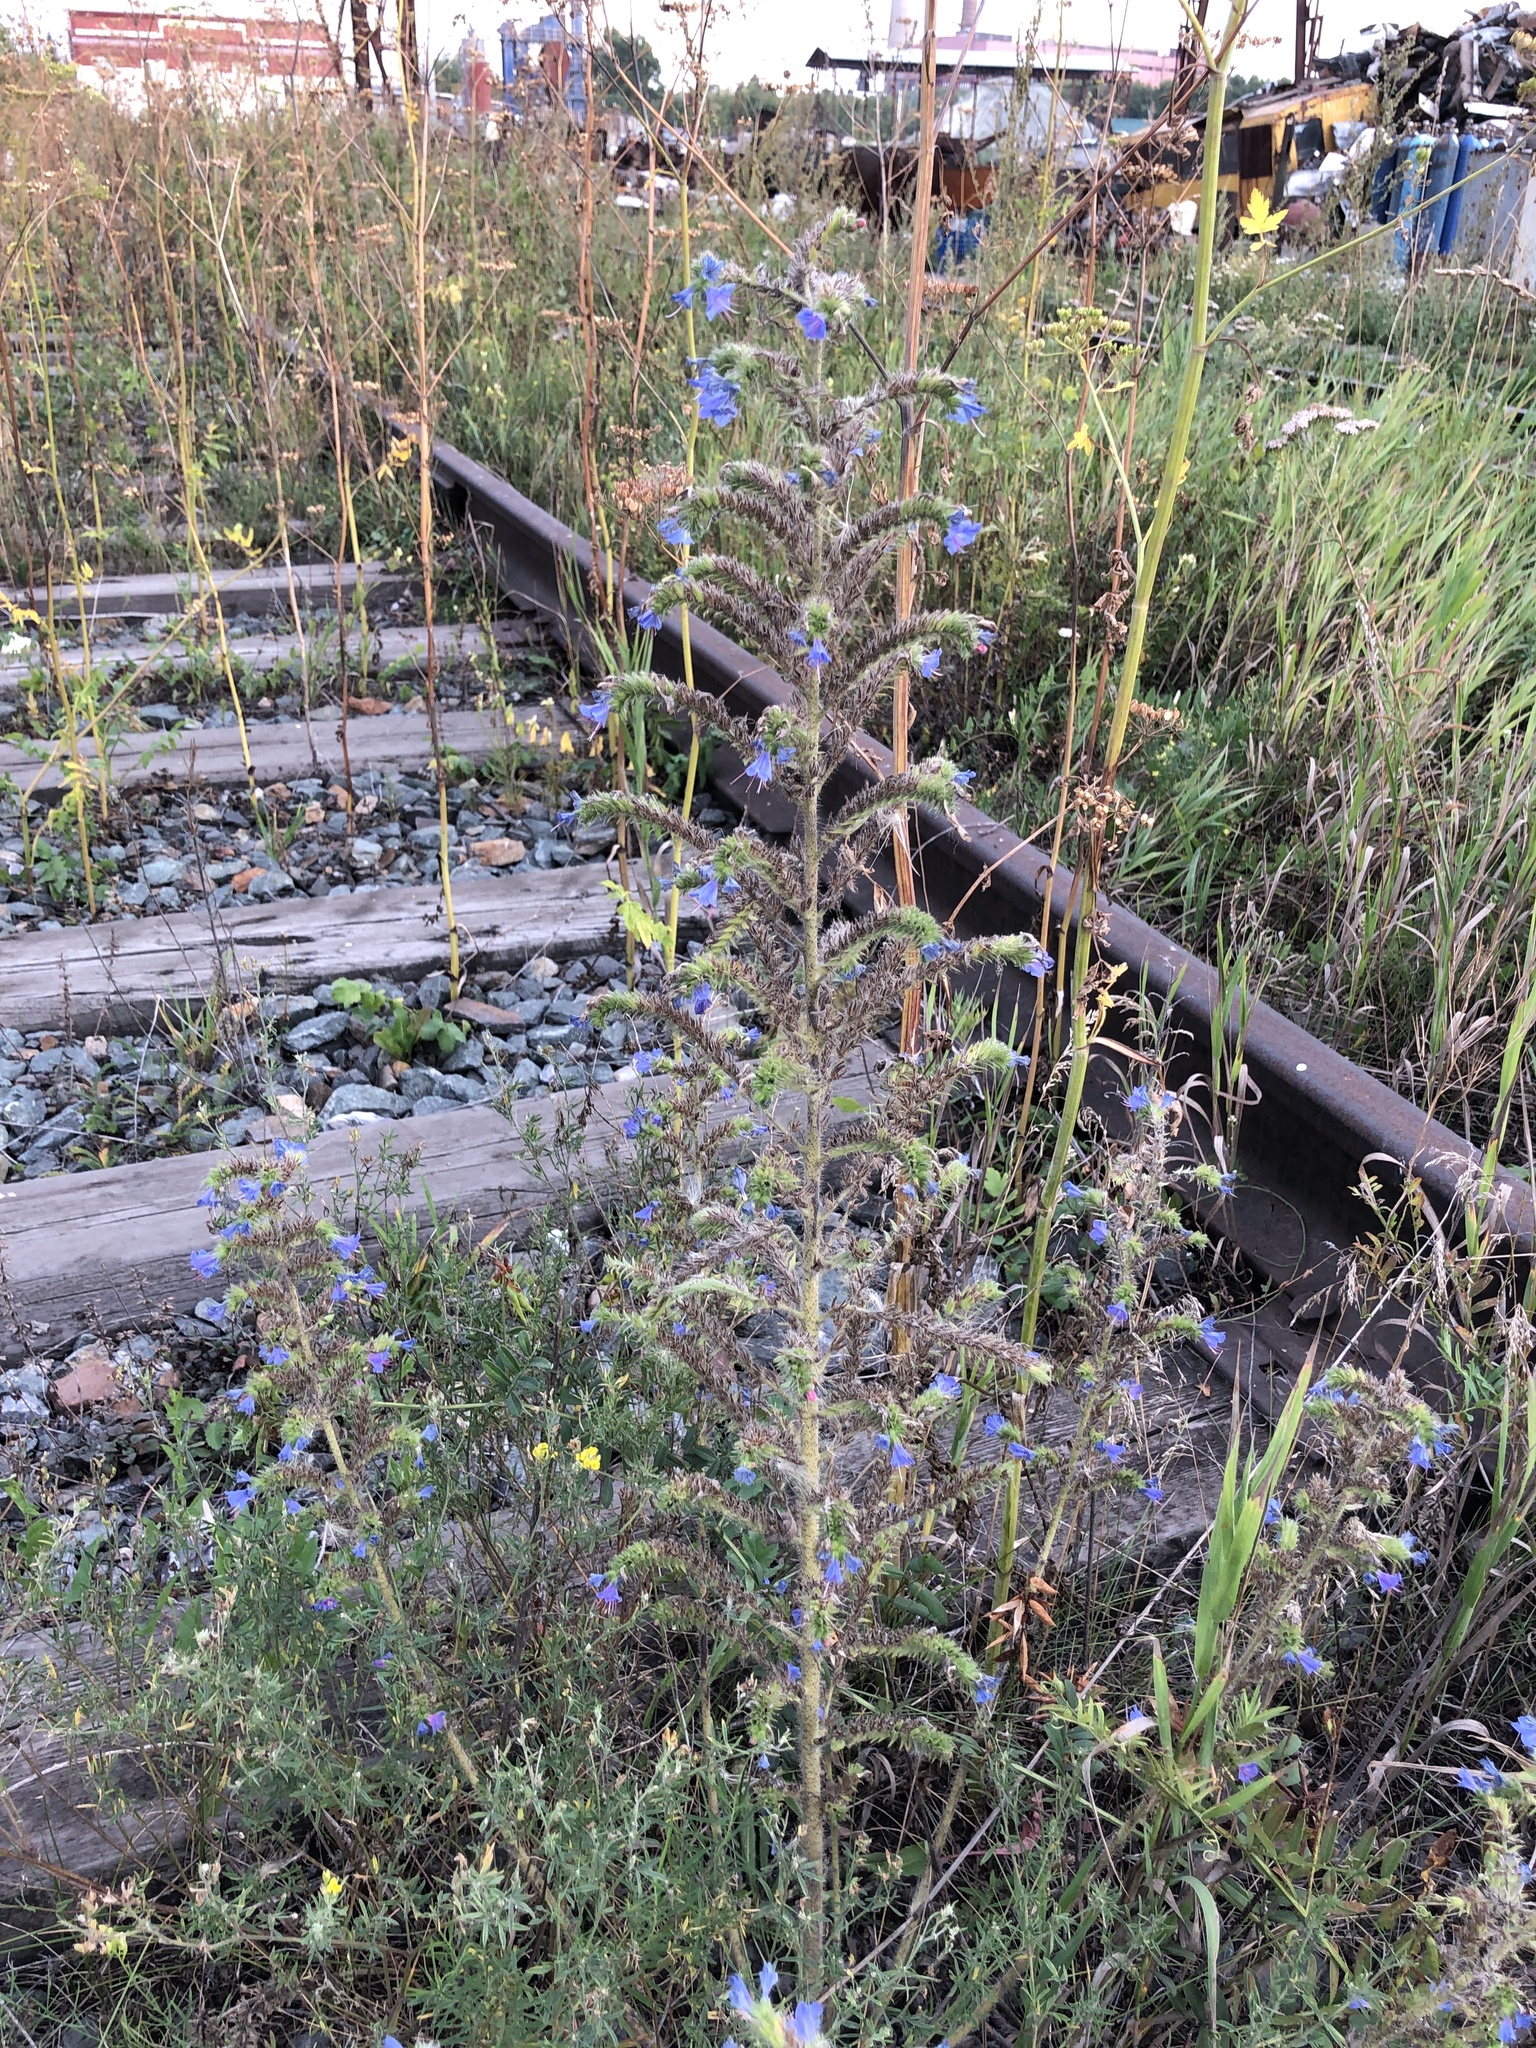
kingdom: Plantae
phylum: Tracheophyta
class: Magnoliopsida
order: Boraginales
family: Boraginaceae
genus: Echium
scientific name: Echium vulgare
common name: Common viper's bugloss
